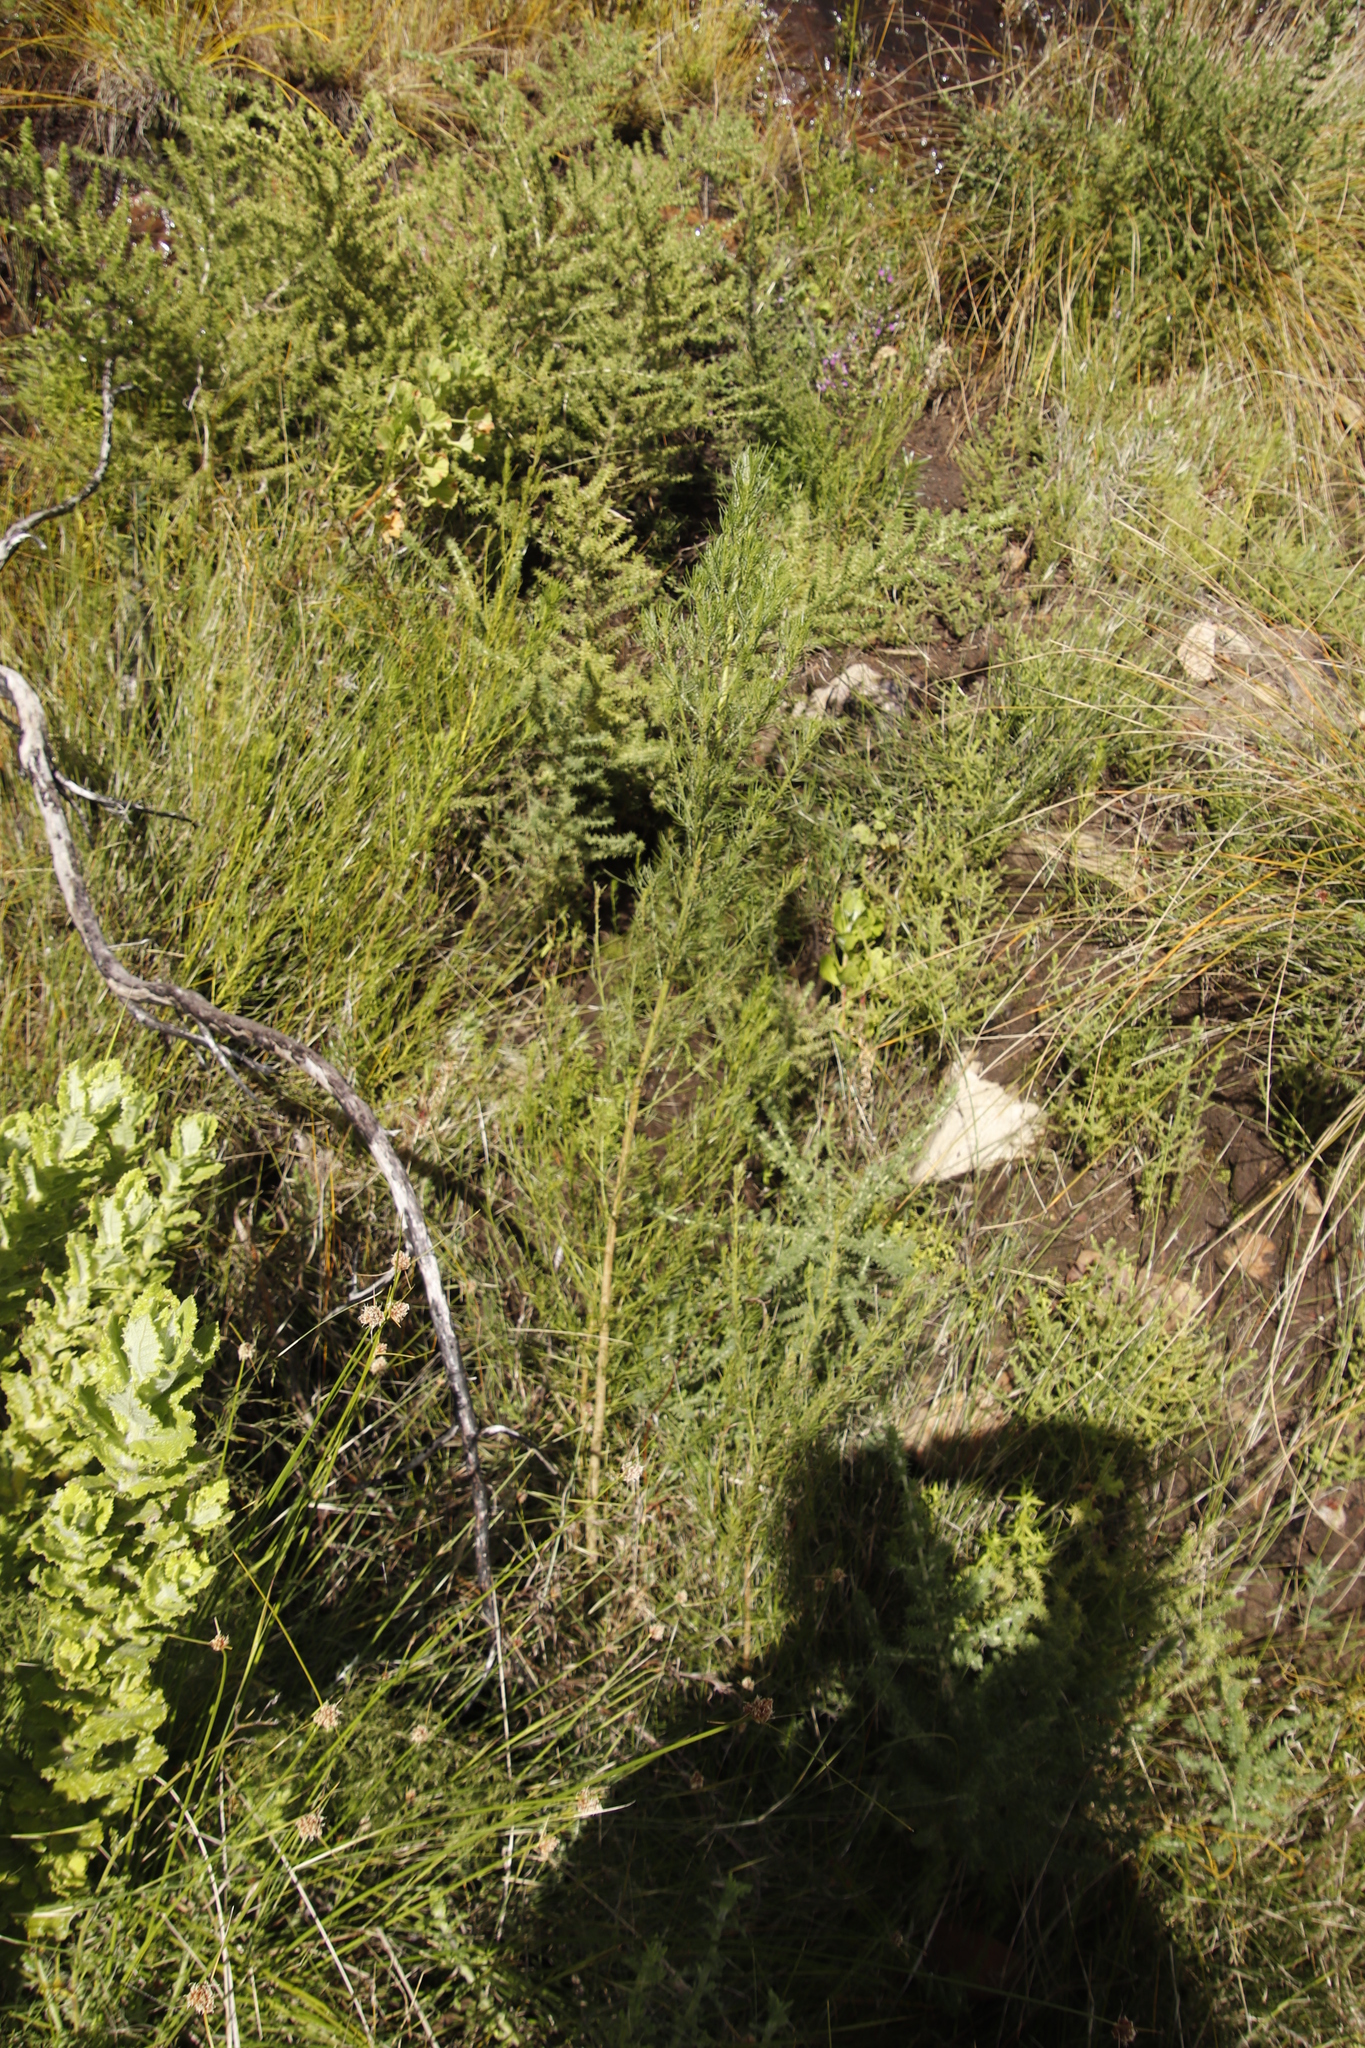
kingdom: Plantae
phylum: Tracheophyta
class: Magnoliopsida
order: Fabales
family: Fabaceae
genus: Psoralea
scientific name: Psoralea pinnata
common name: African scurfpea
